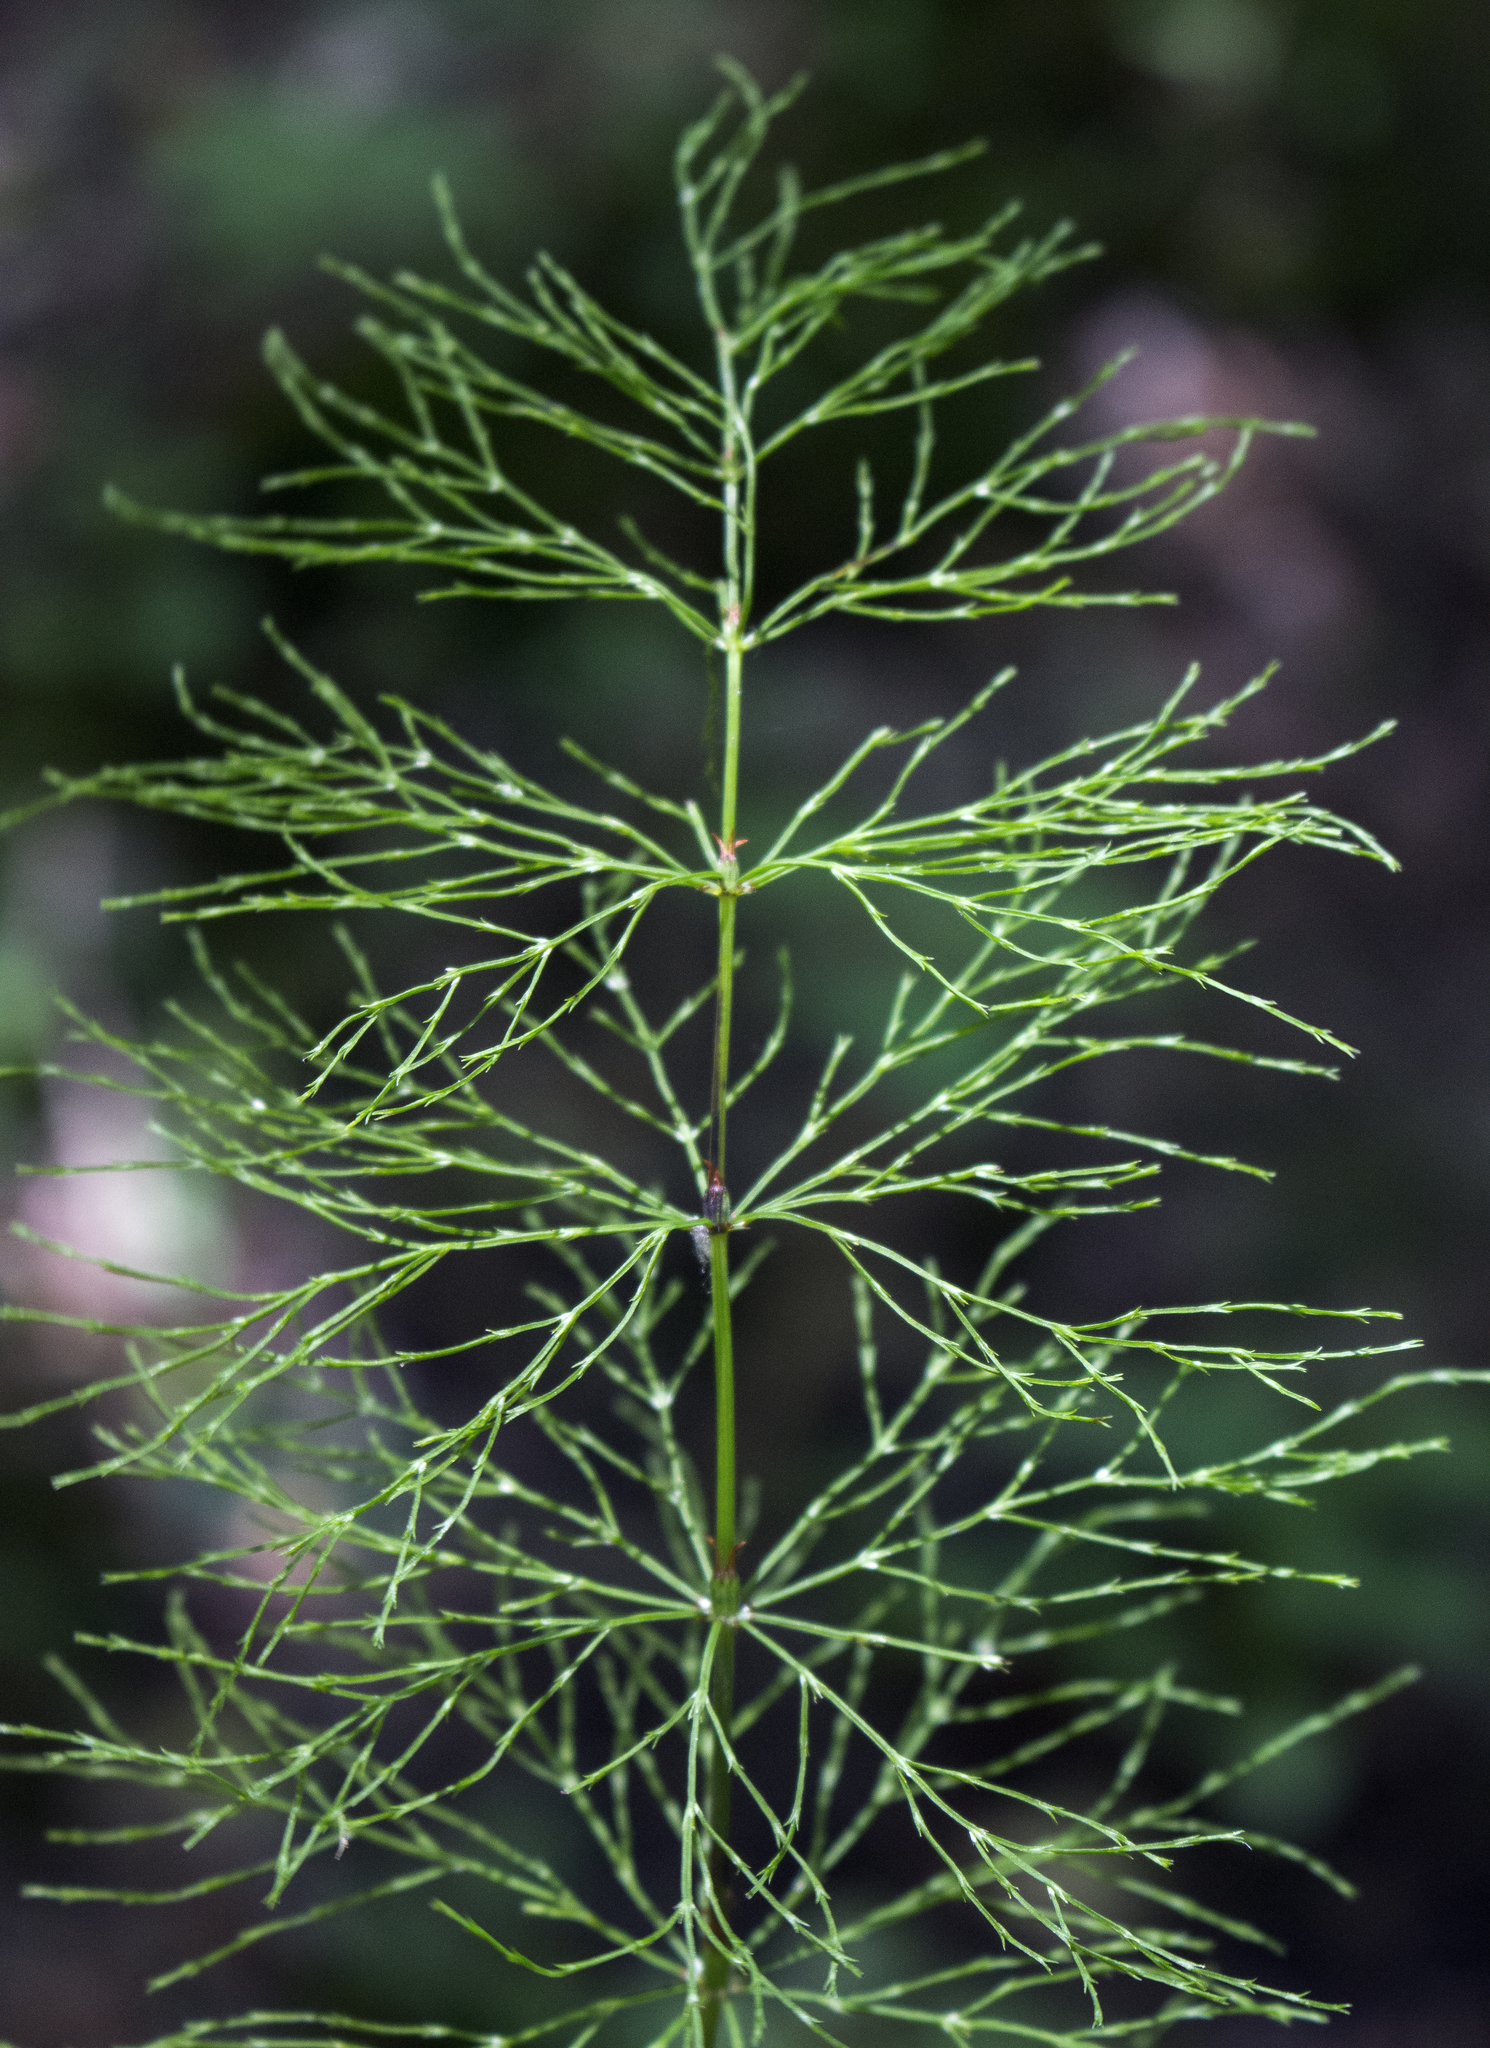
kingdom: Plantae
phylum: Tracheophyta
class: Polypodiopsida
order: Equisetales
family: Equisetaceae
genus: Equisetum
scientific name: Equisetum sylvaticum
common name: Wood horsetail
